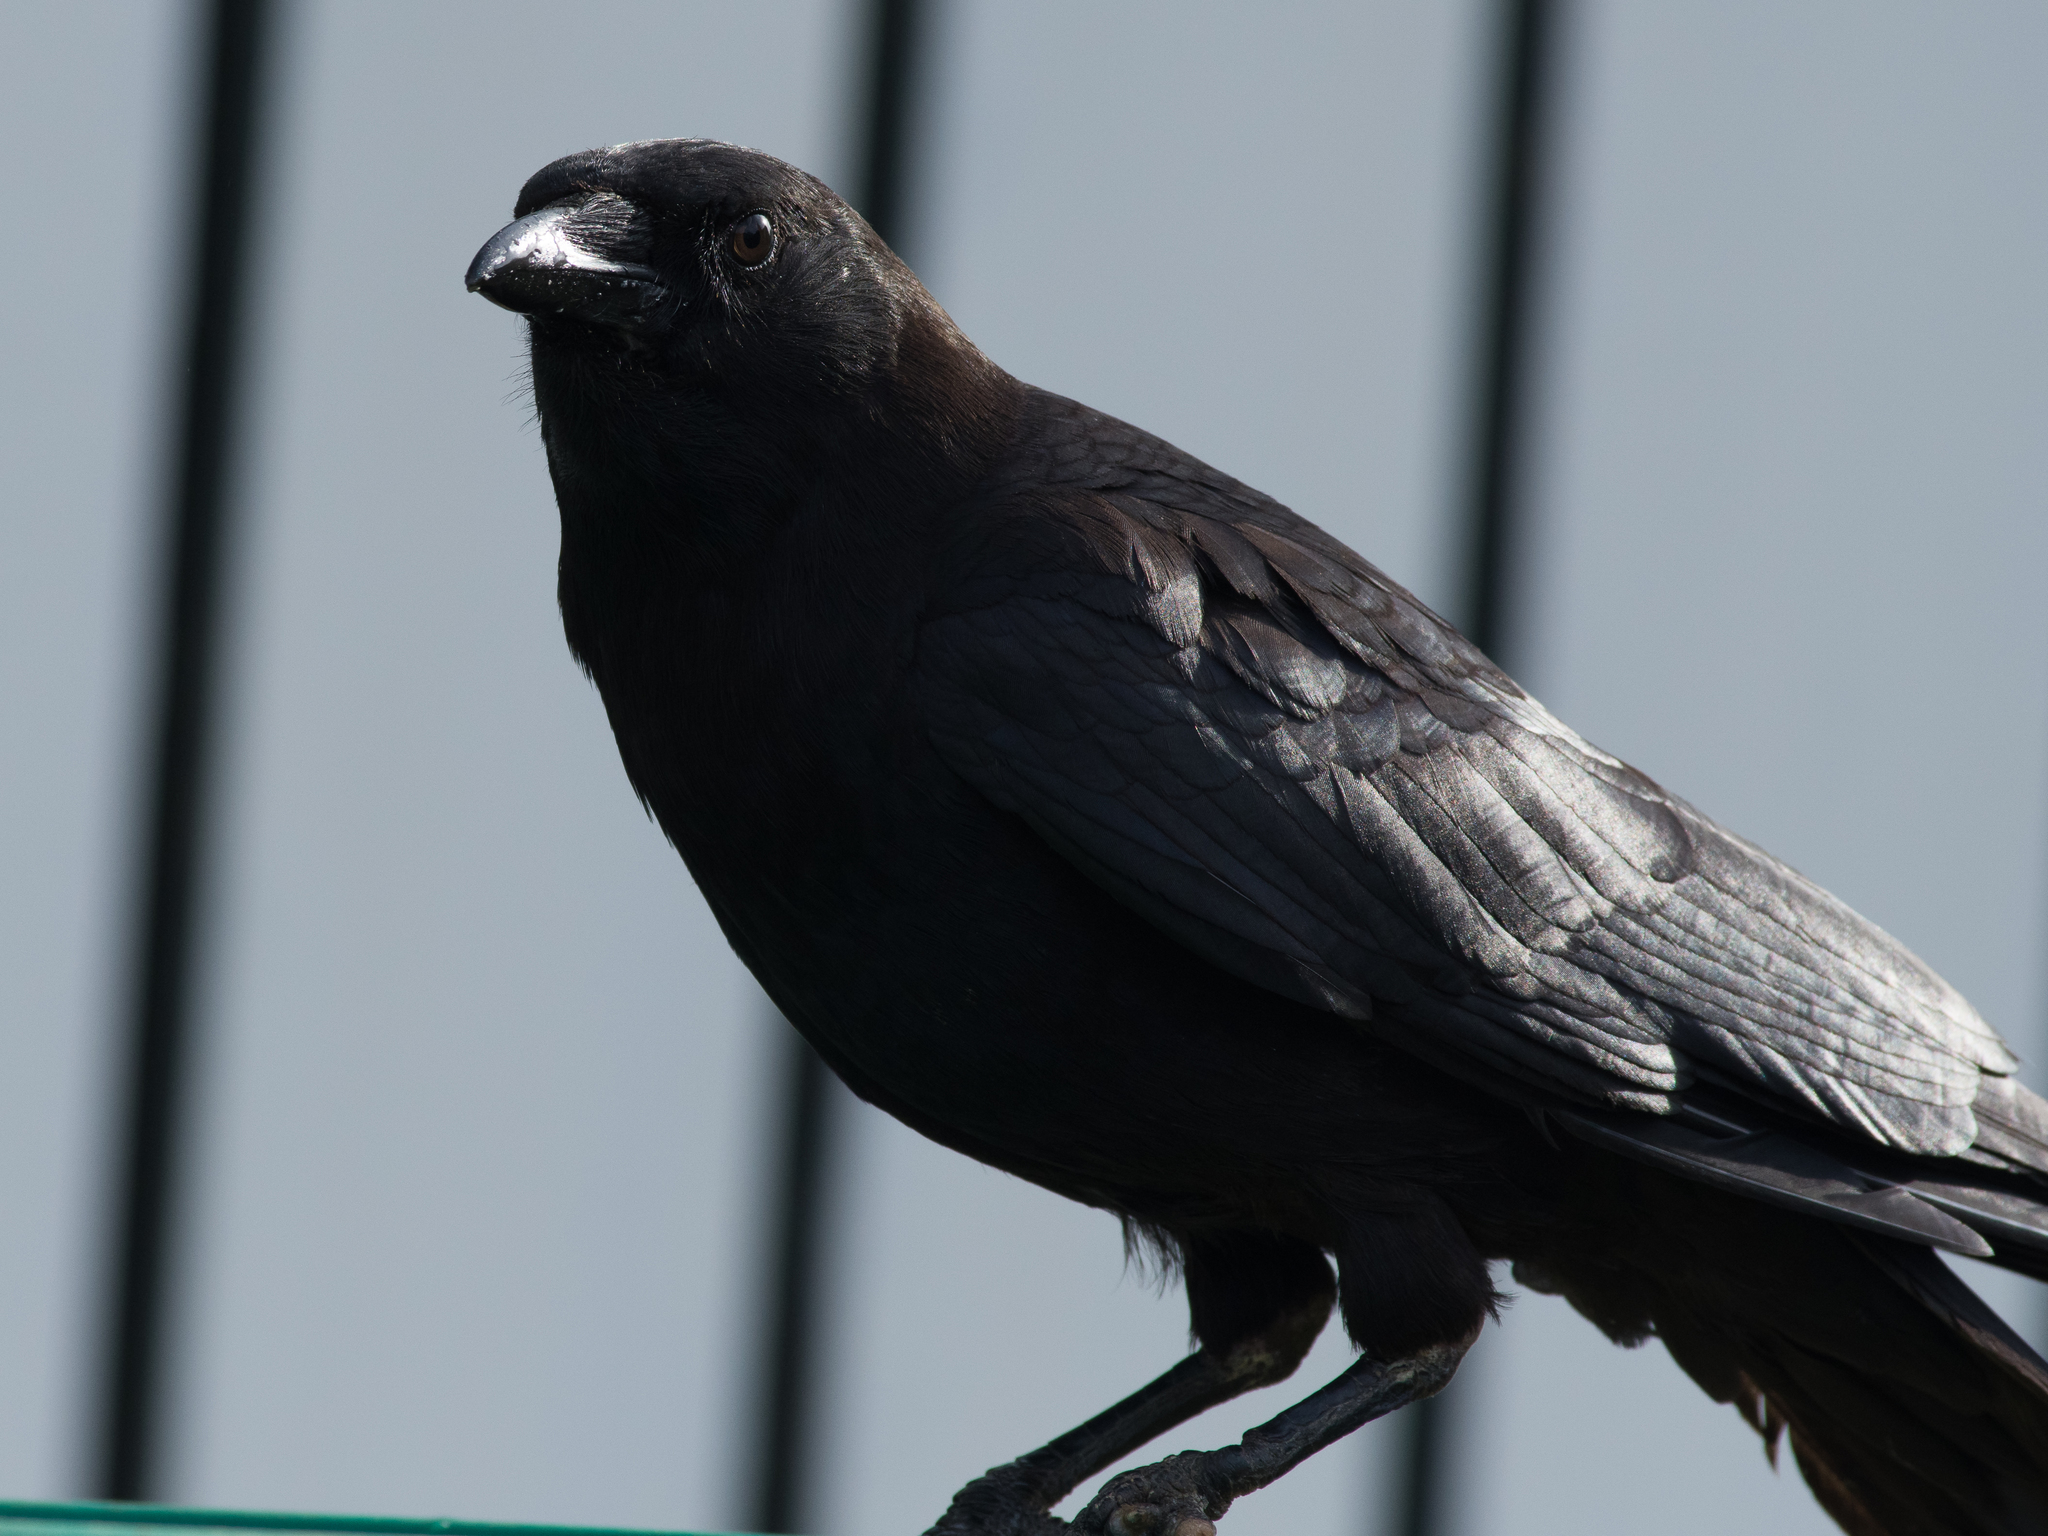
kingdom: Animalia
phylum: Chordata
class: Aves
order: Passeriformes
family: Corvidae
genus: Corvus
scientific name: Corvus brachyrhynchos
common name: American crow
